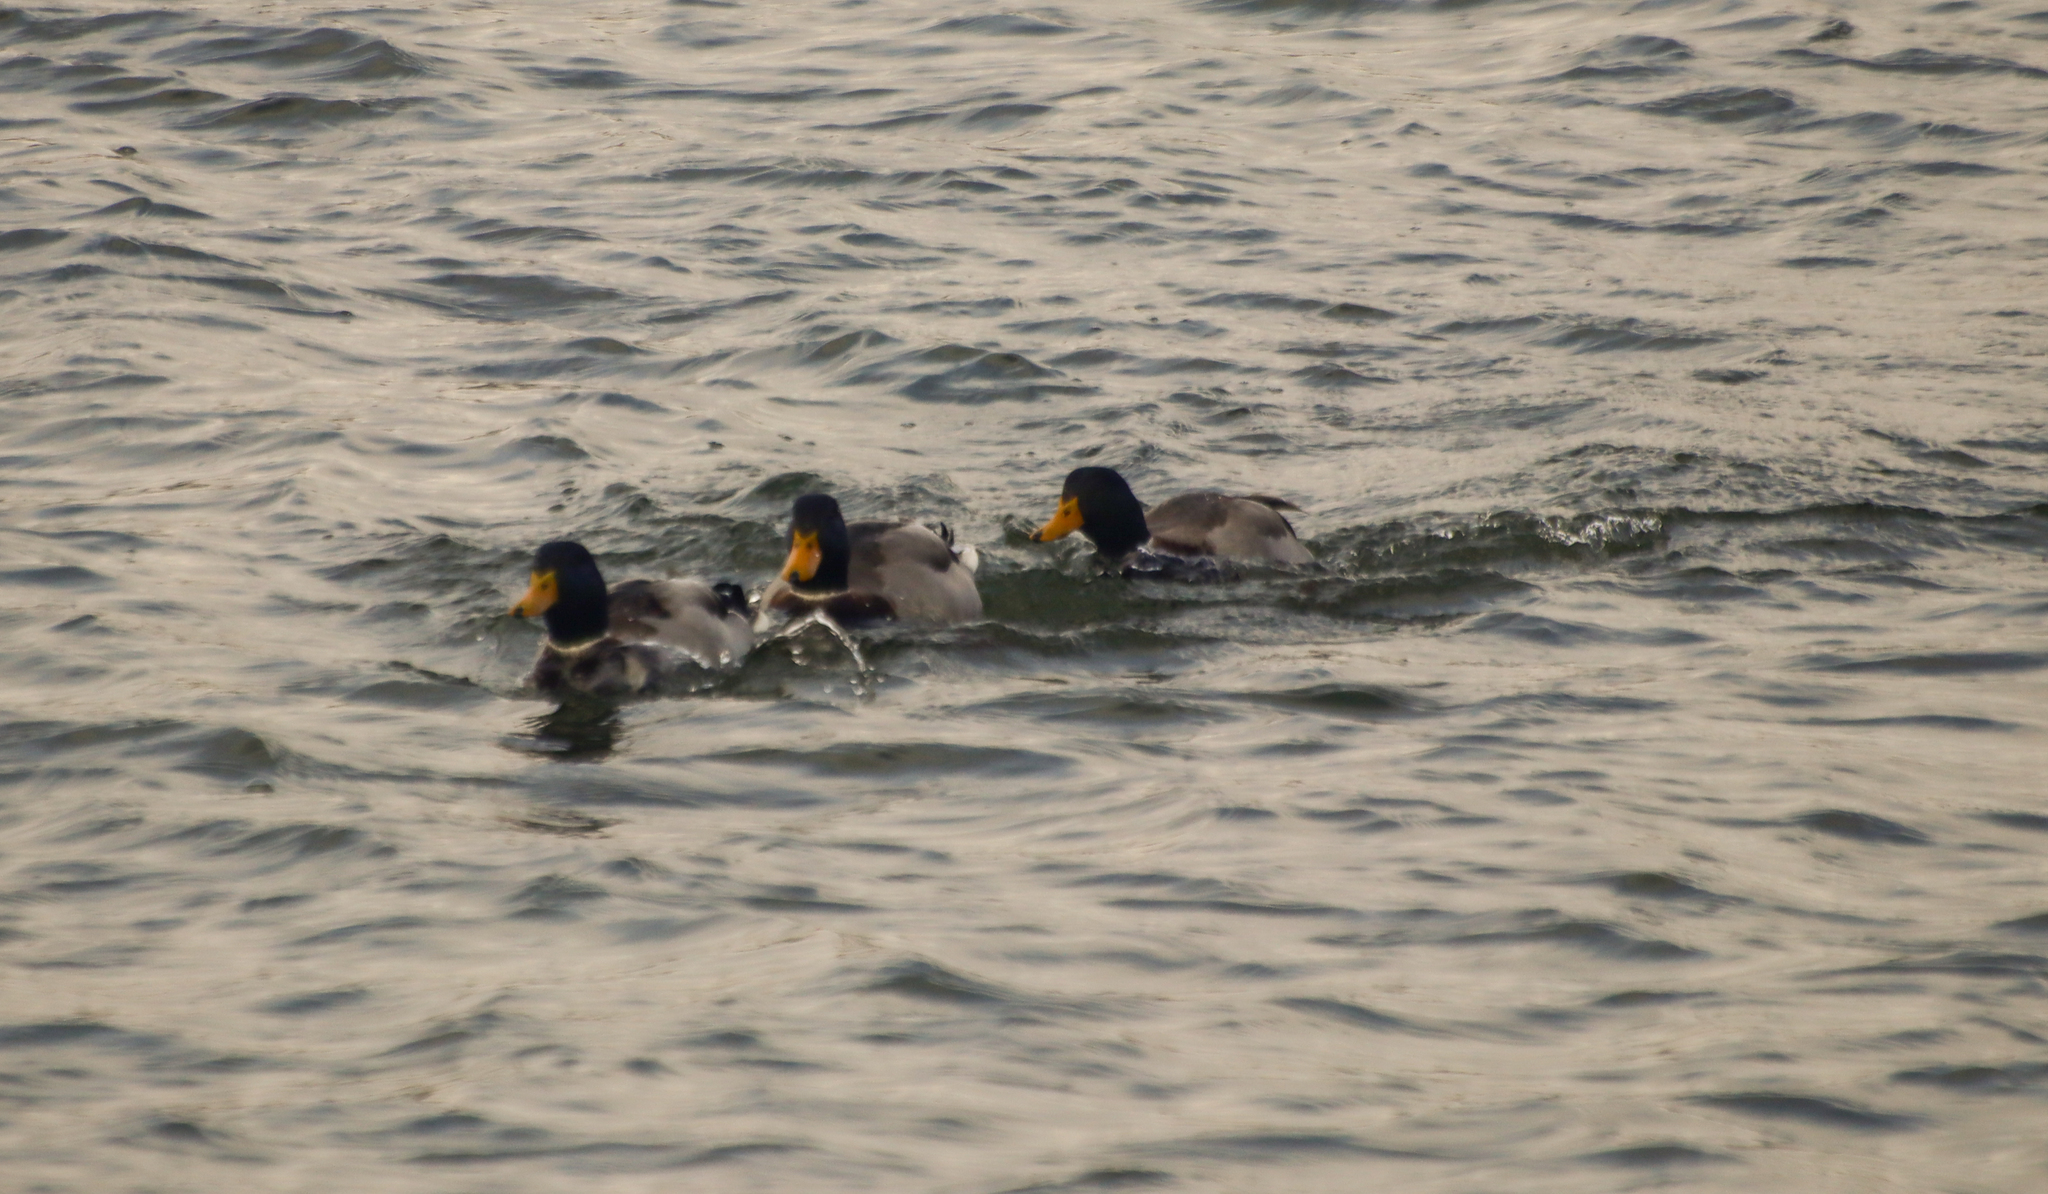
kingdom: Animalia
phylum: Chordata
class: Aves
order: Anseriformes
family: Anatidae
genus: Anas
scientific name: Anas platyrhynchos
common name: Mallard
